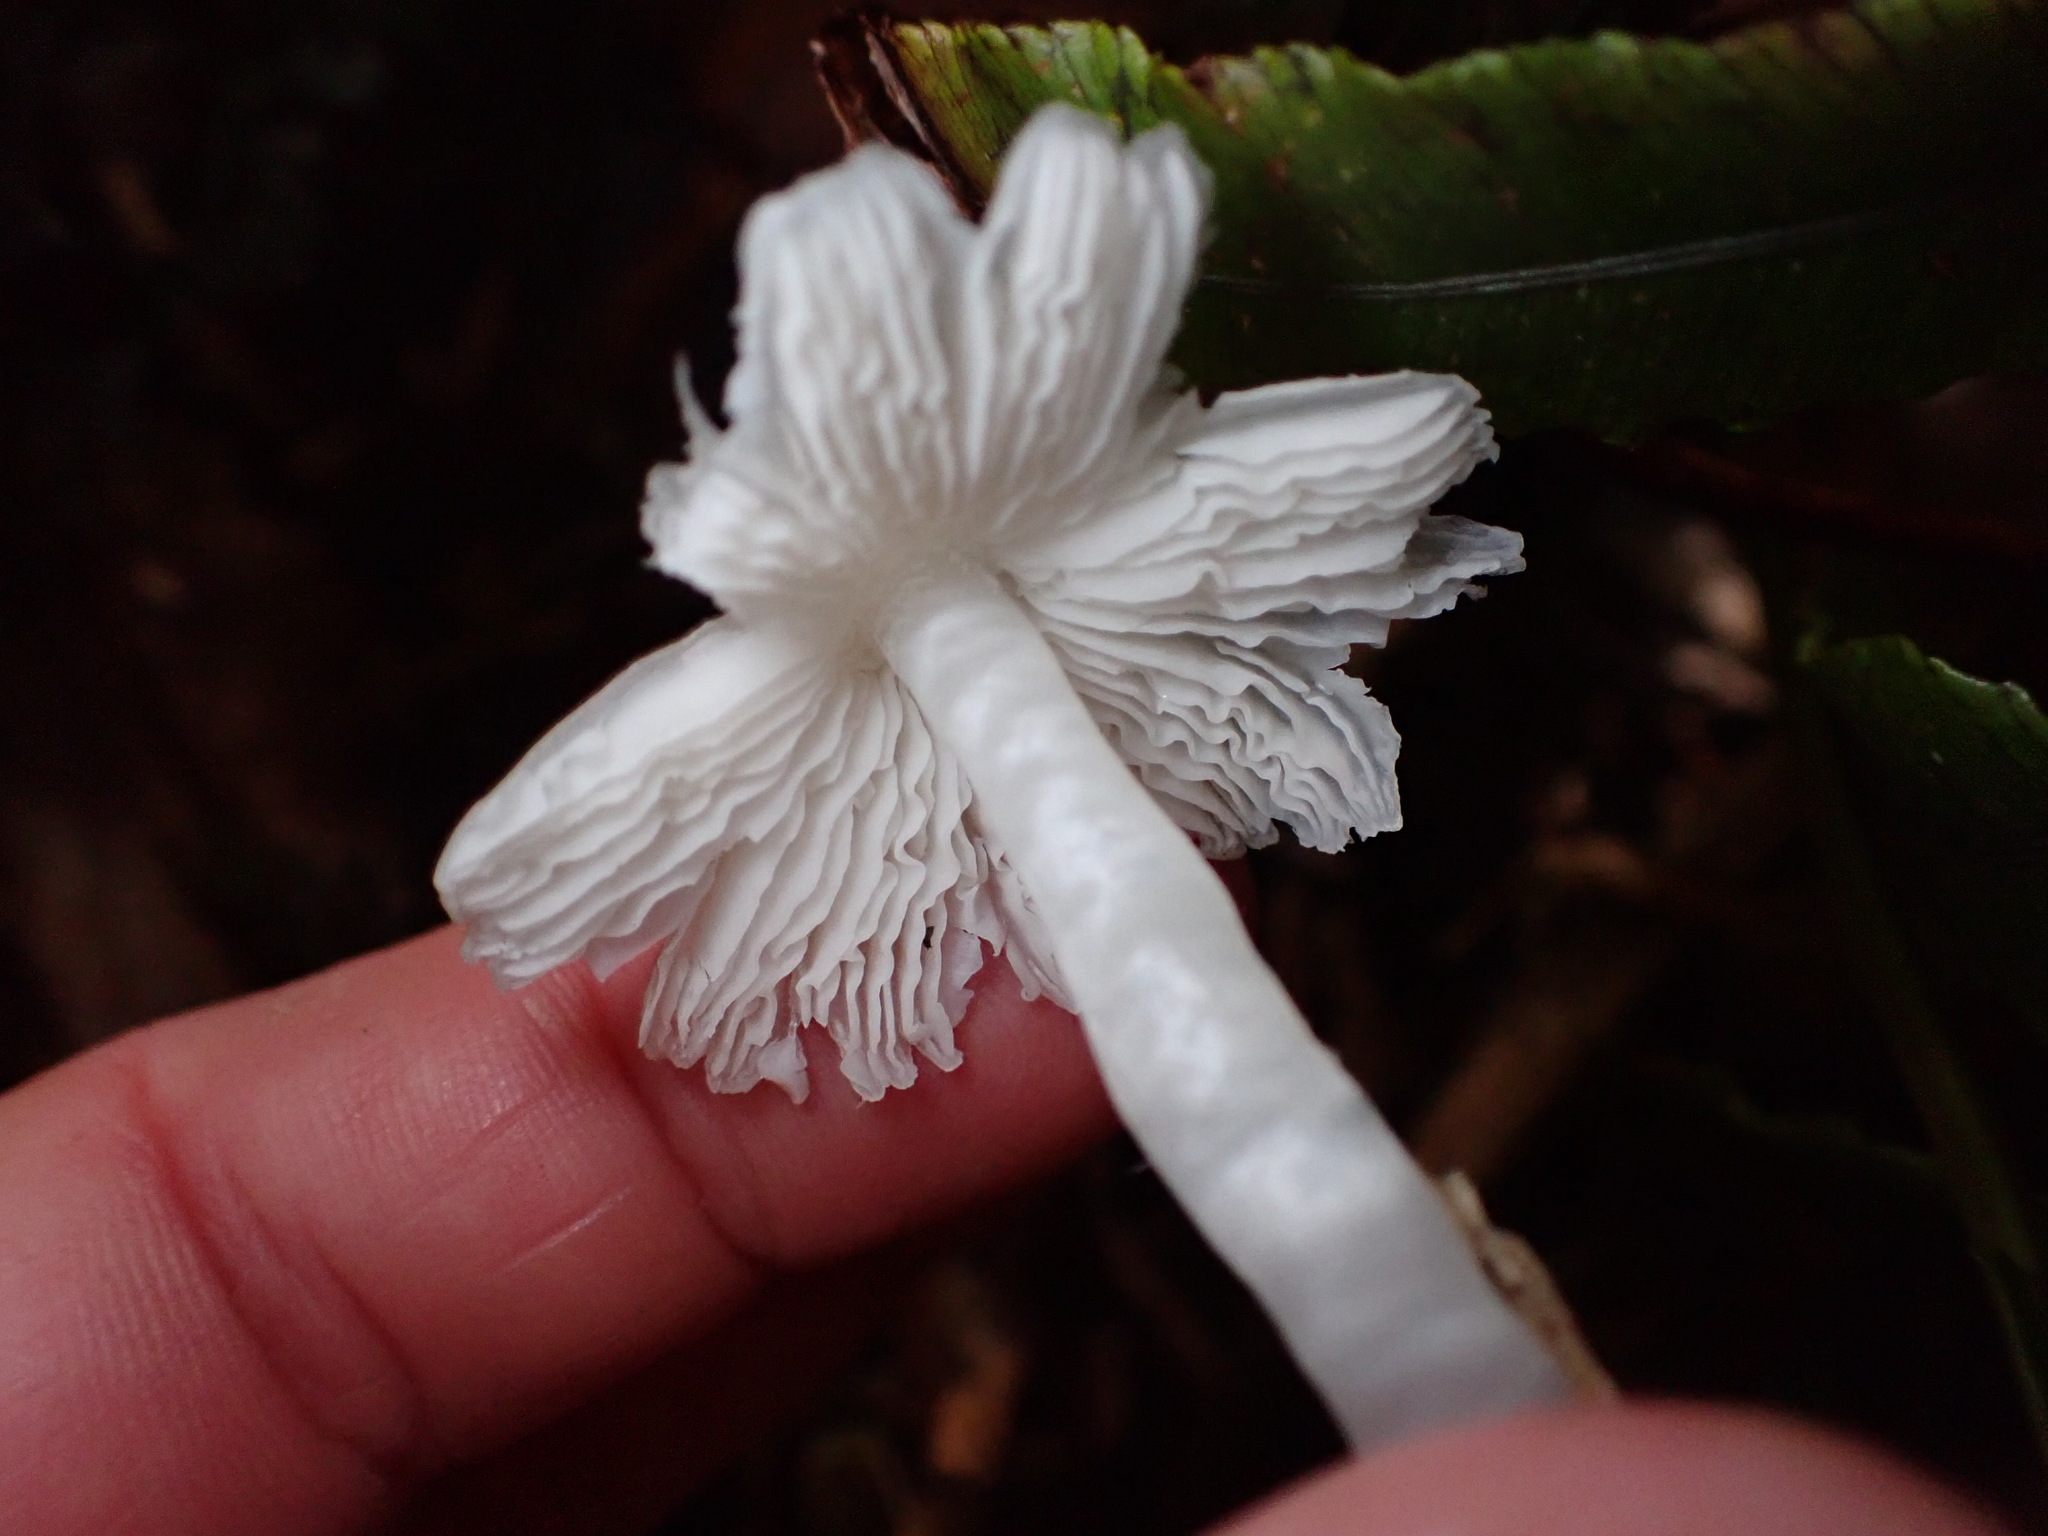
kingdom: Fungi
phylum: Basidiomycota
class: Agaricomycetes
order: Agaricales
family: Hygrophoraceae
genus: Humidicutis
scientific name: Humidicutis mavis
